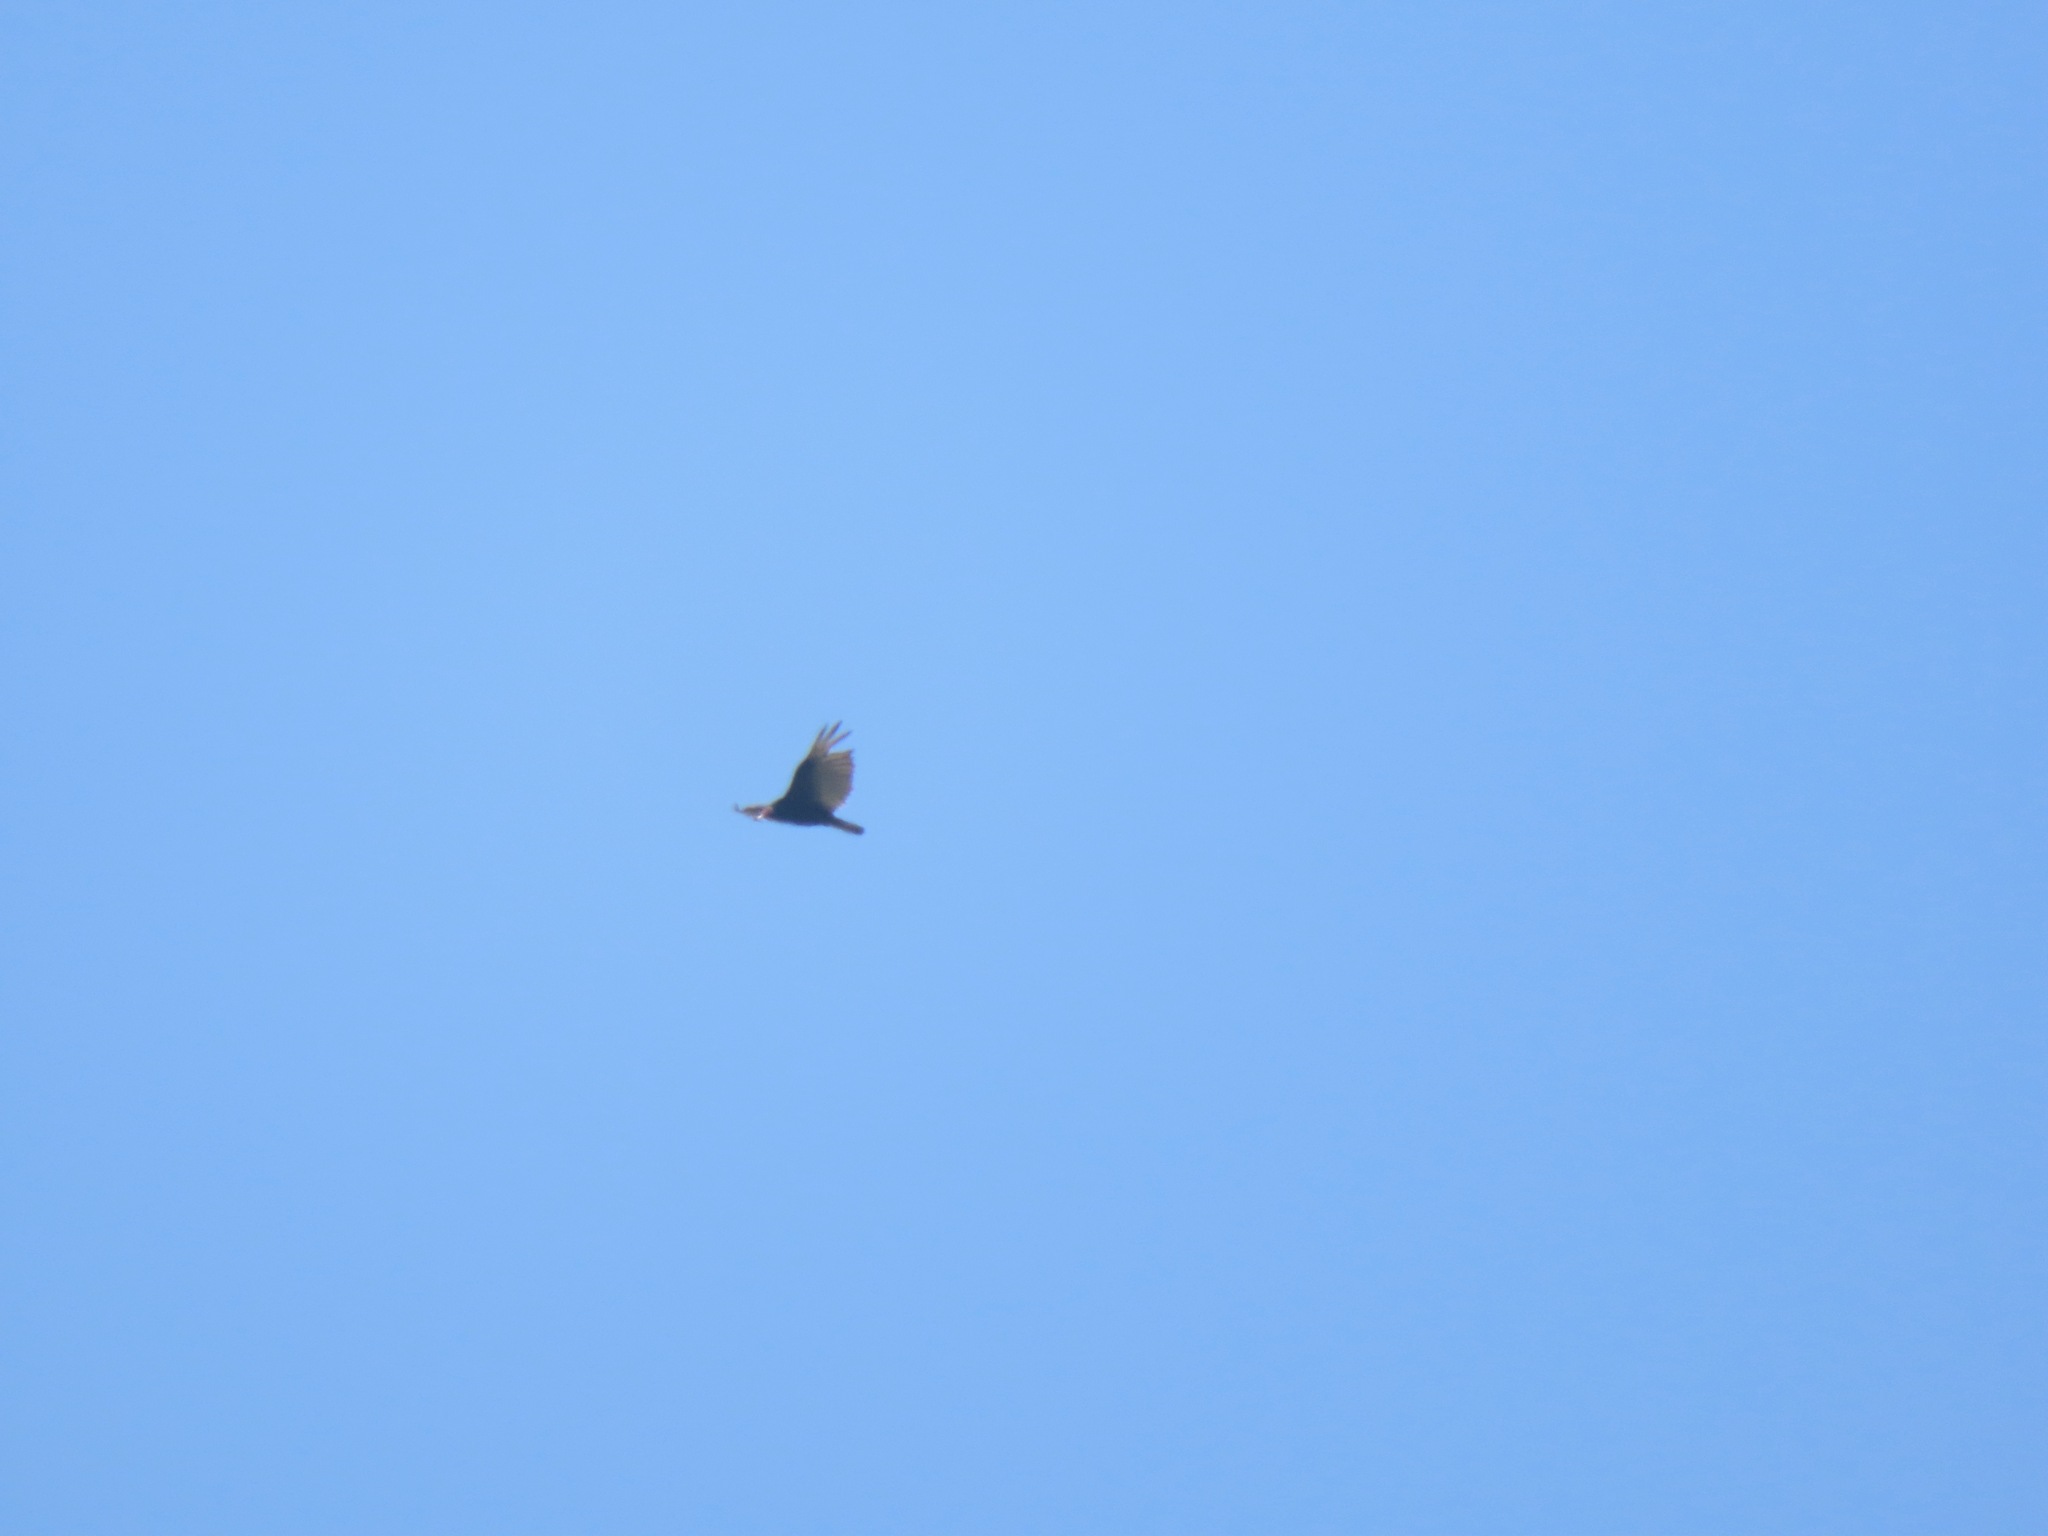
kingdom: Animalia
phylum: Chordata
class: Aves
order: Accipitriformes
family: Cathartidae
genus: Cathartes
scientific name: Cathartes aura
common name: Turkey vulture
